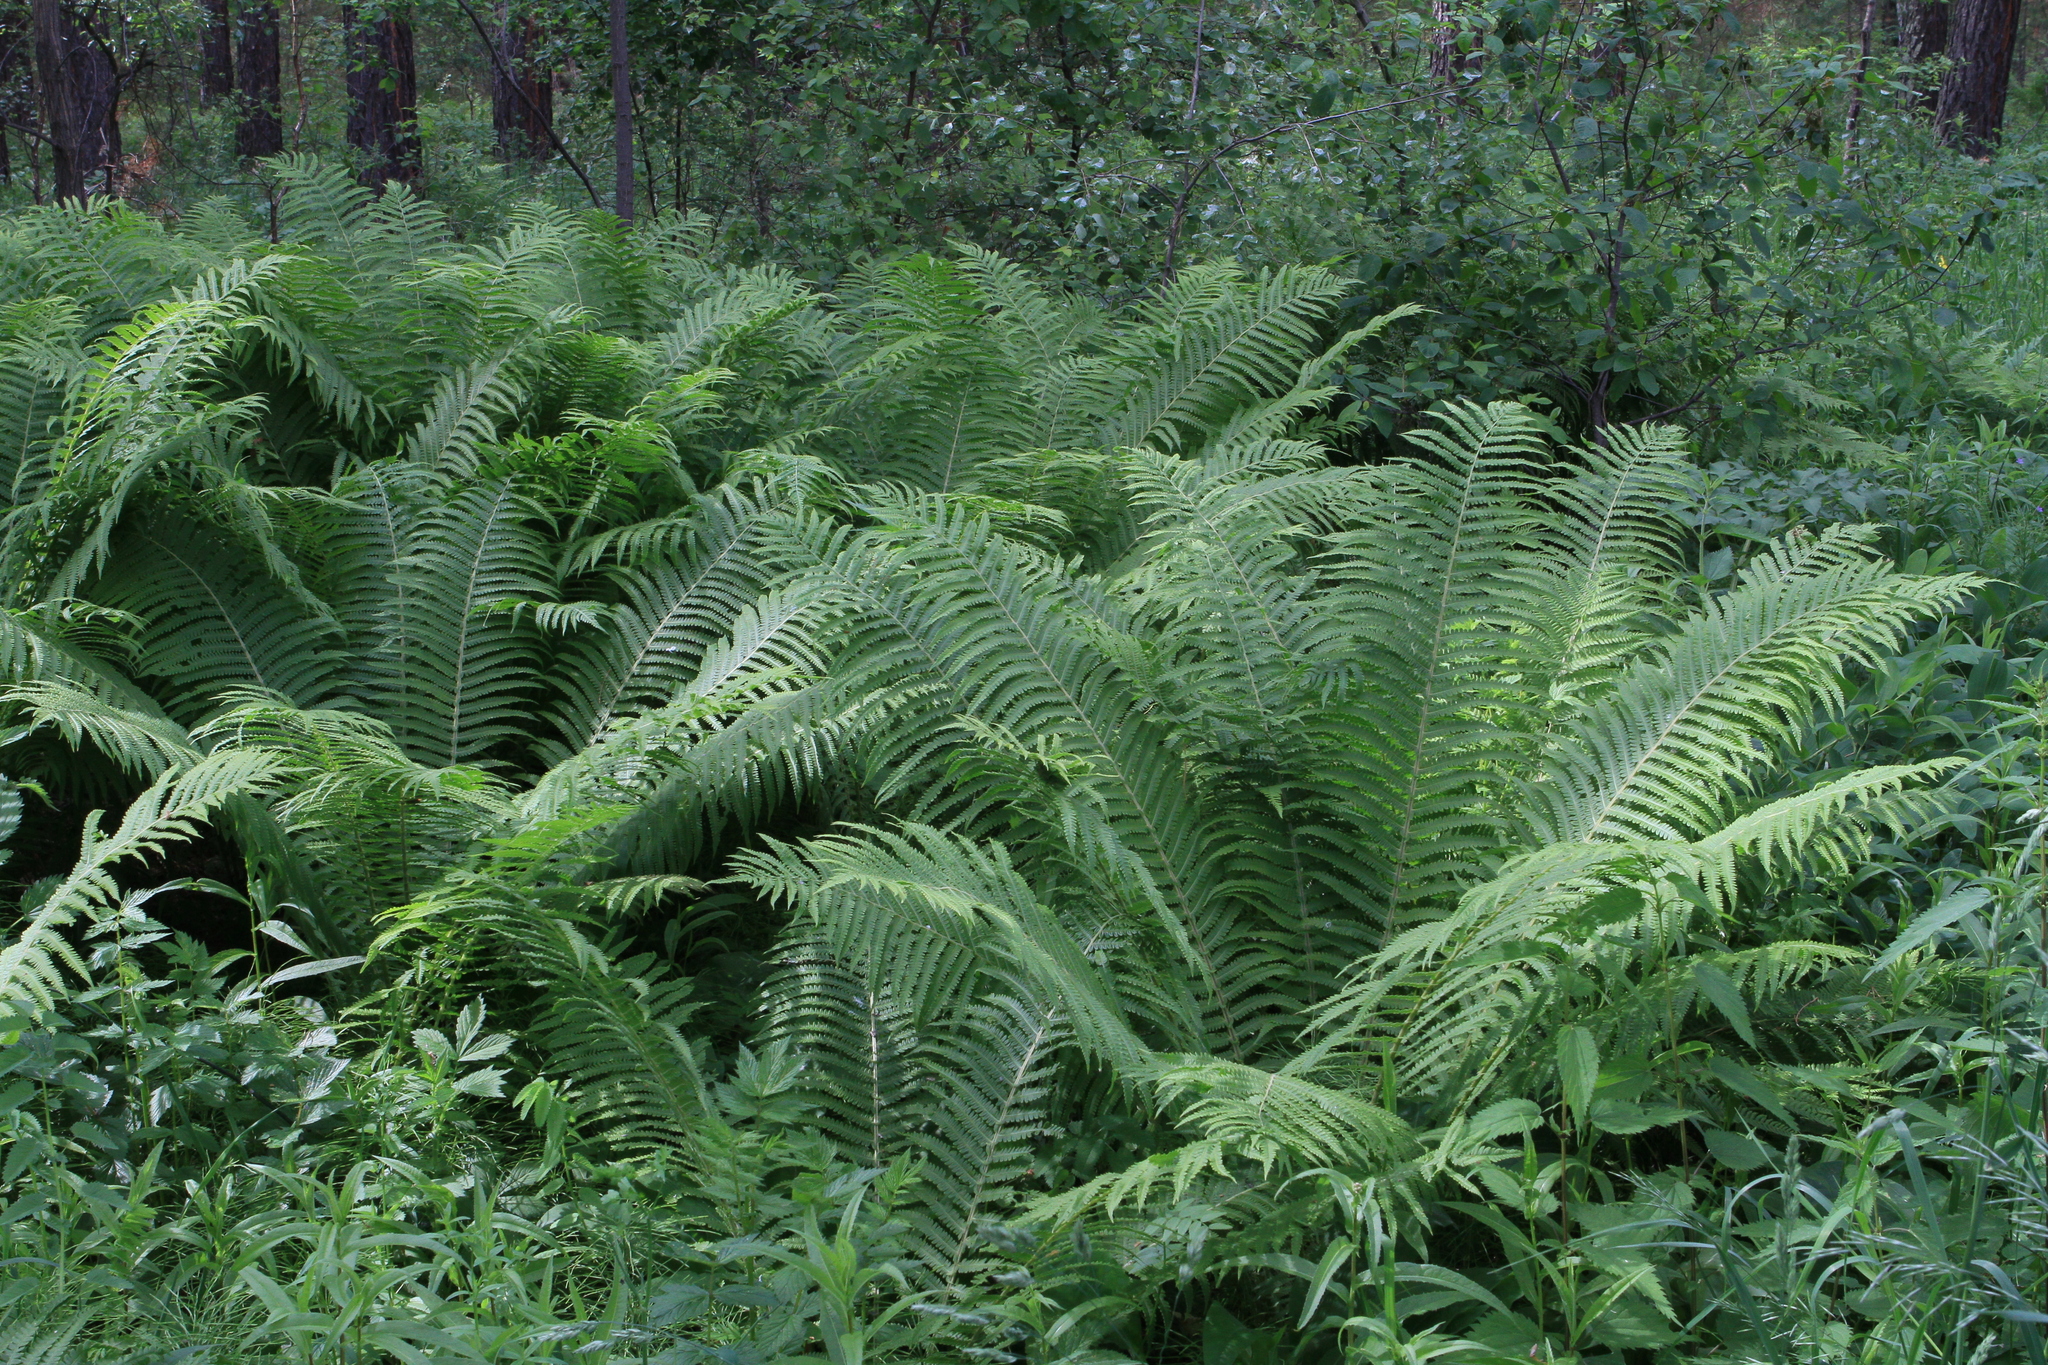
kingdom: Plantae
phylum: Tracheophyta
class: Polypodiopsida
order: Polypodiales
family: Onocleaceae
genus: Matteuccia
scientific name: Matteuccia struthiopteris
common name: Ostrich fern
